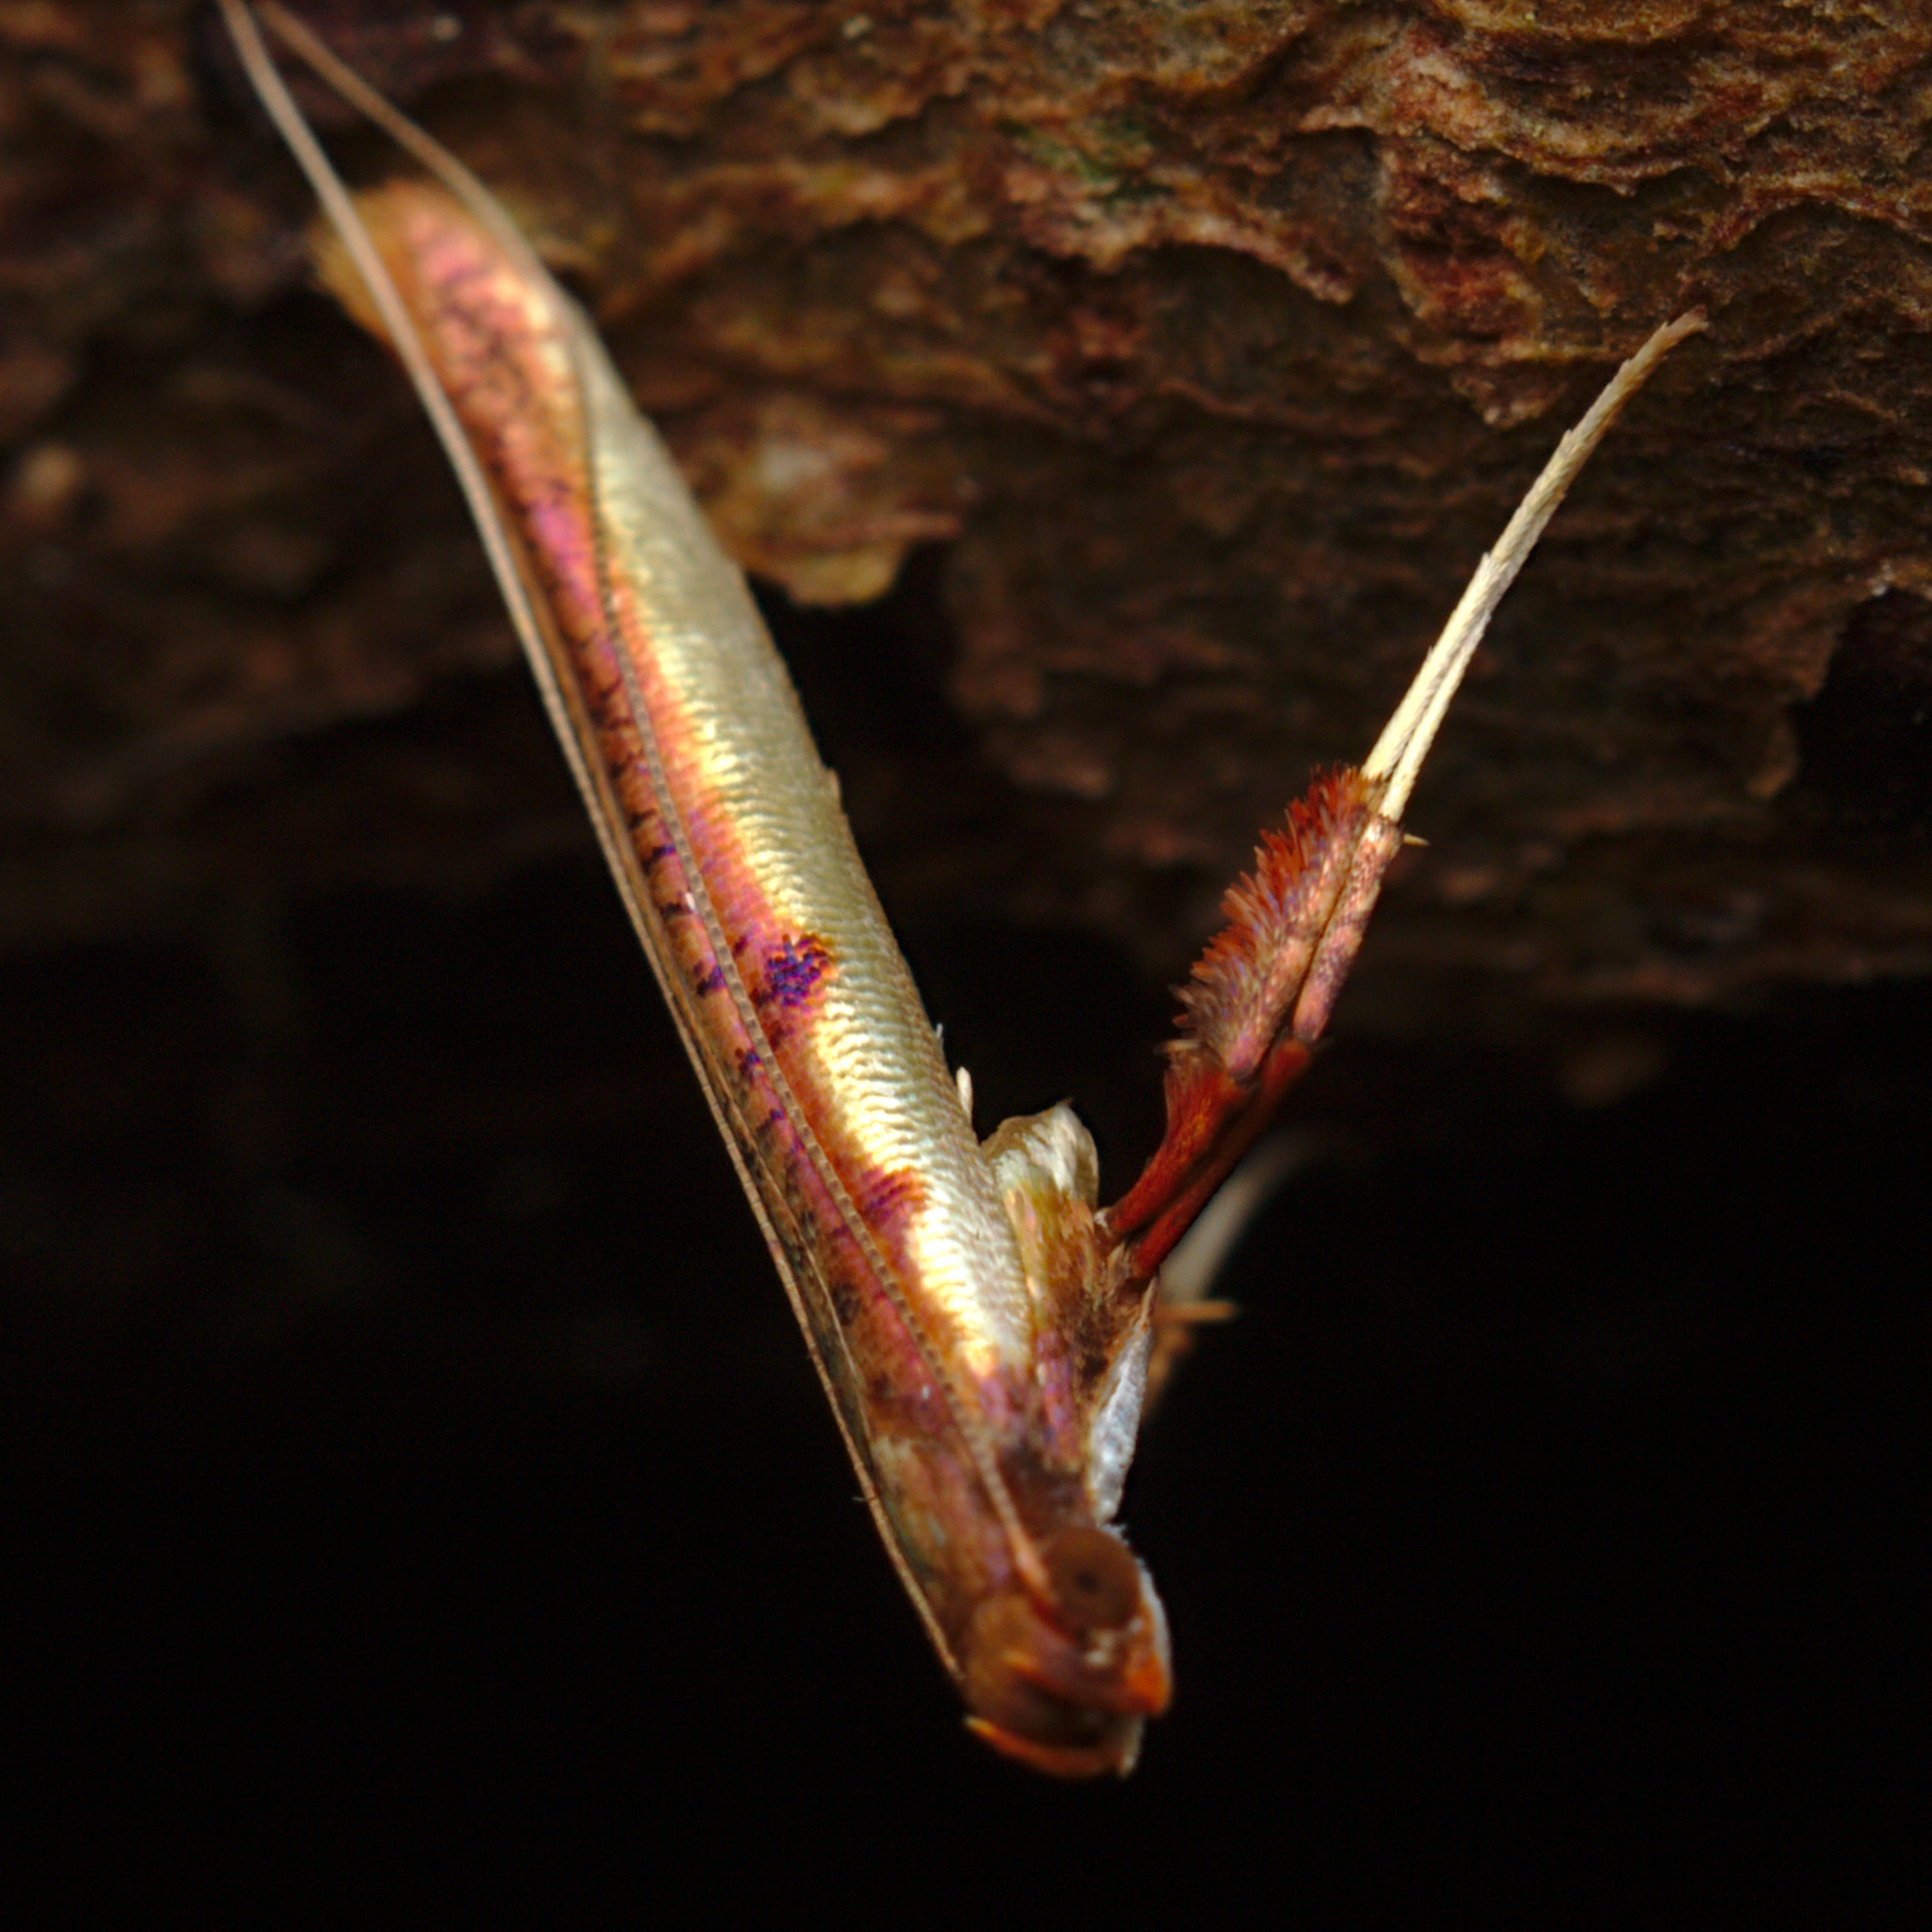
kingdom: Animalia
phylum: Arthropoda
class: Insecta
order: Lepidoptera
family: Gracillariidae
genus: Caloptilia
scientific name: Caloptilia chrysitis
